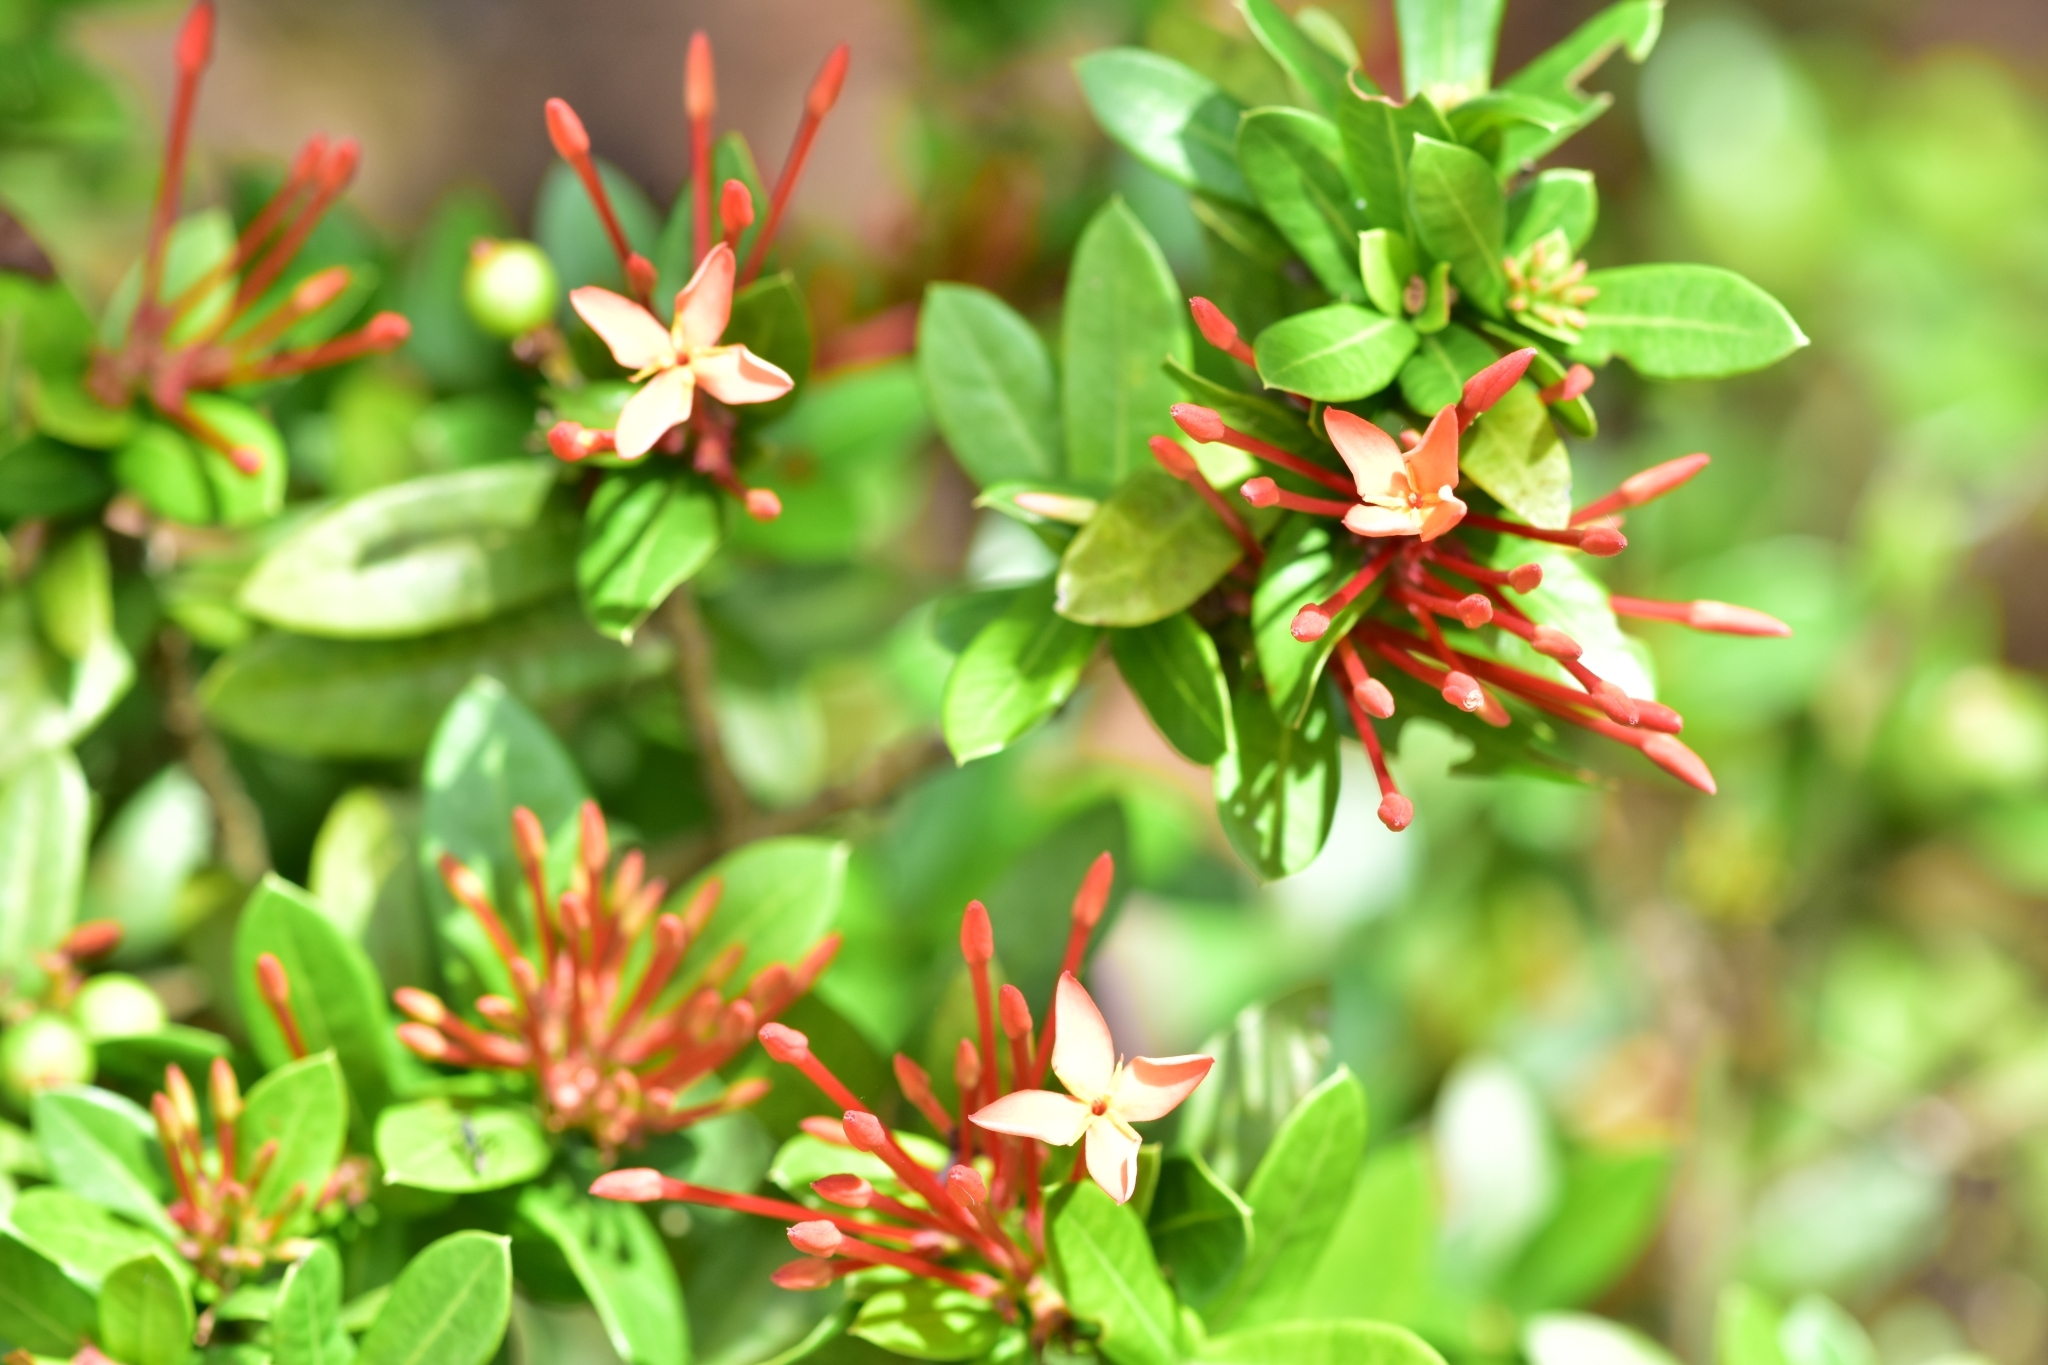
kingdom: Plantae
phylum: Tracheophyta
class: Magnoliopsida
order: Gentianales
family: Rubiaceae
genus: Ixora
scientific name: Ixora coccinea
